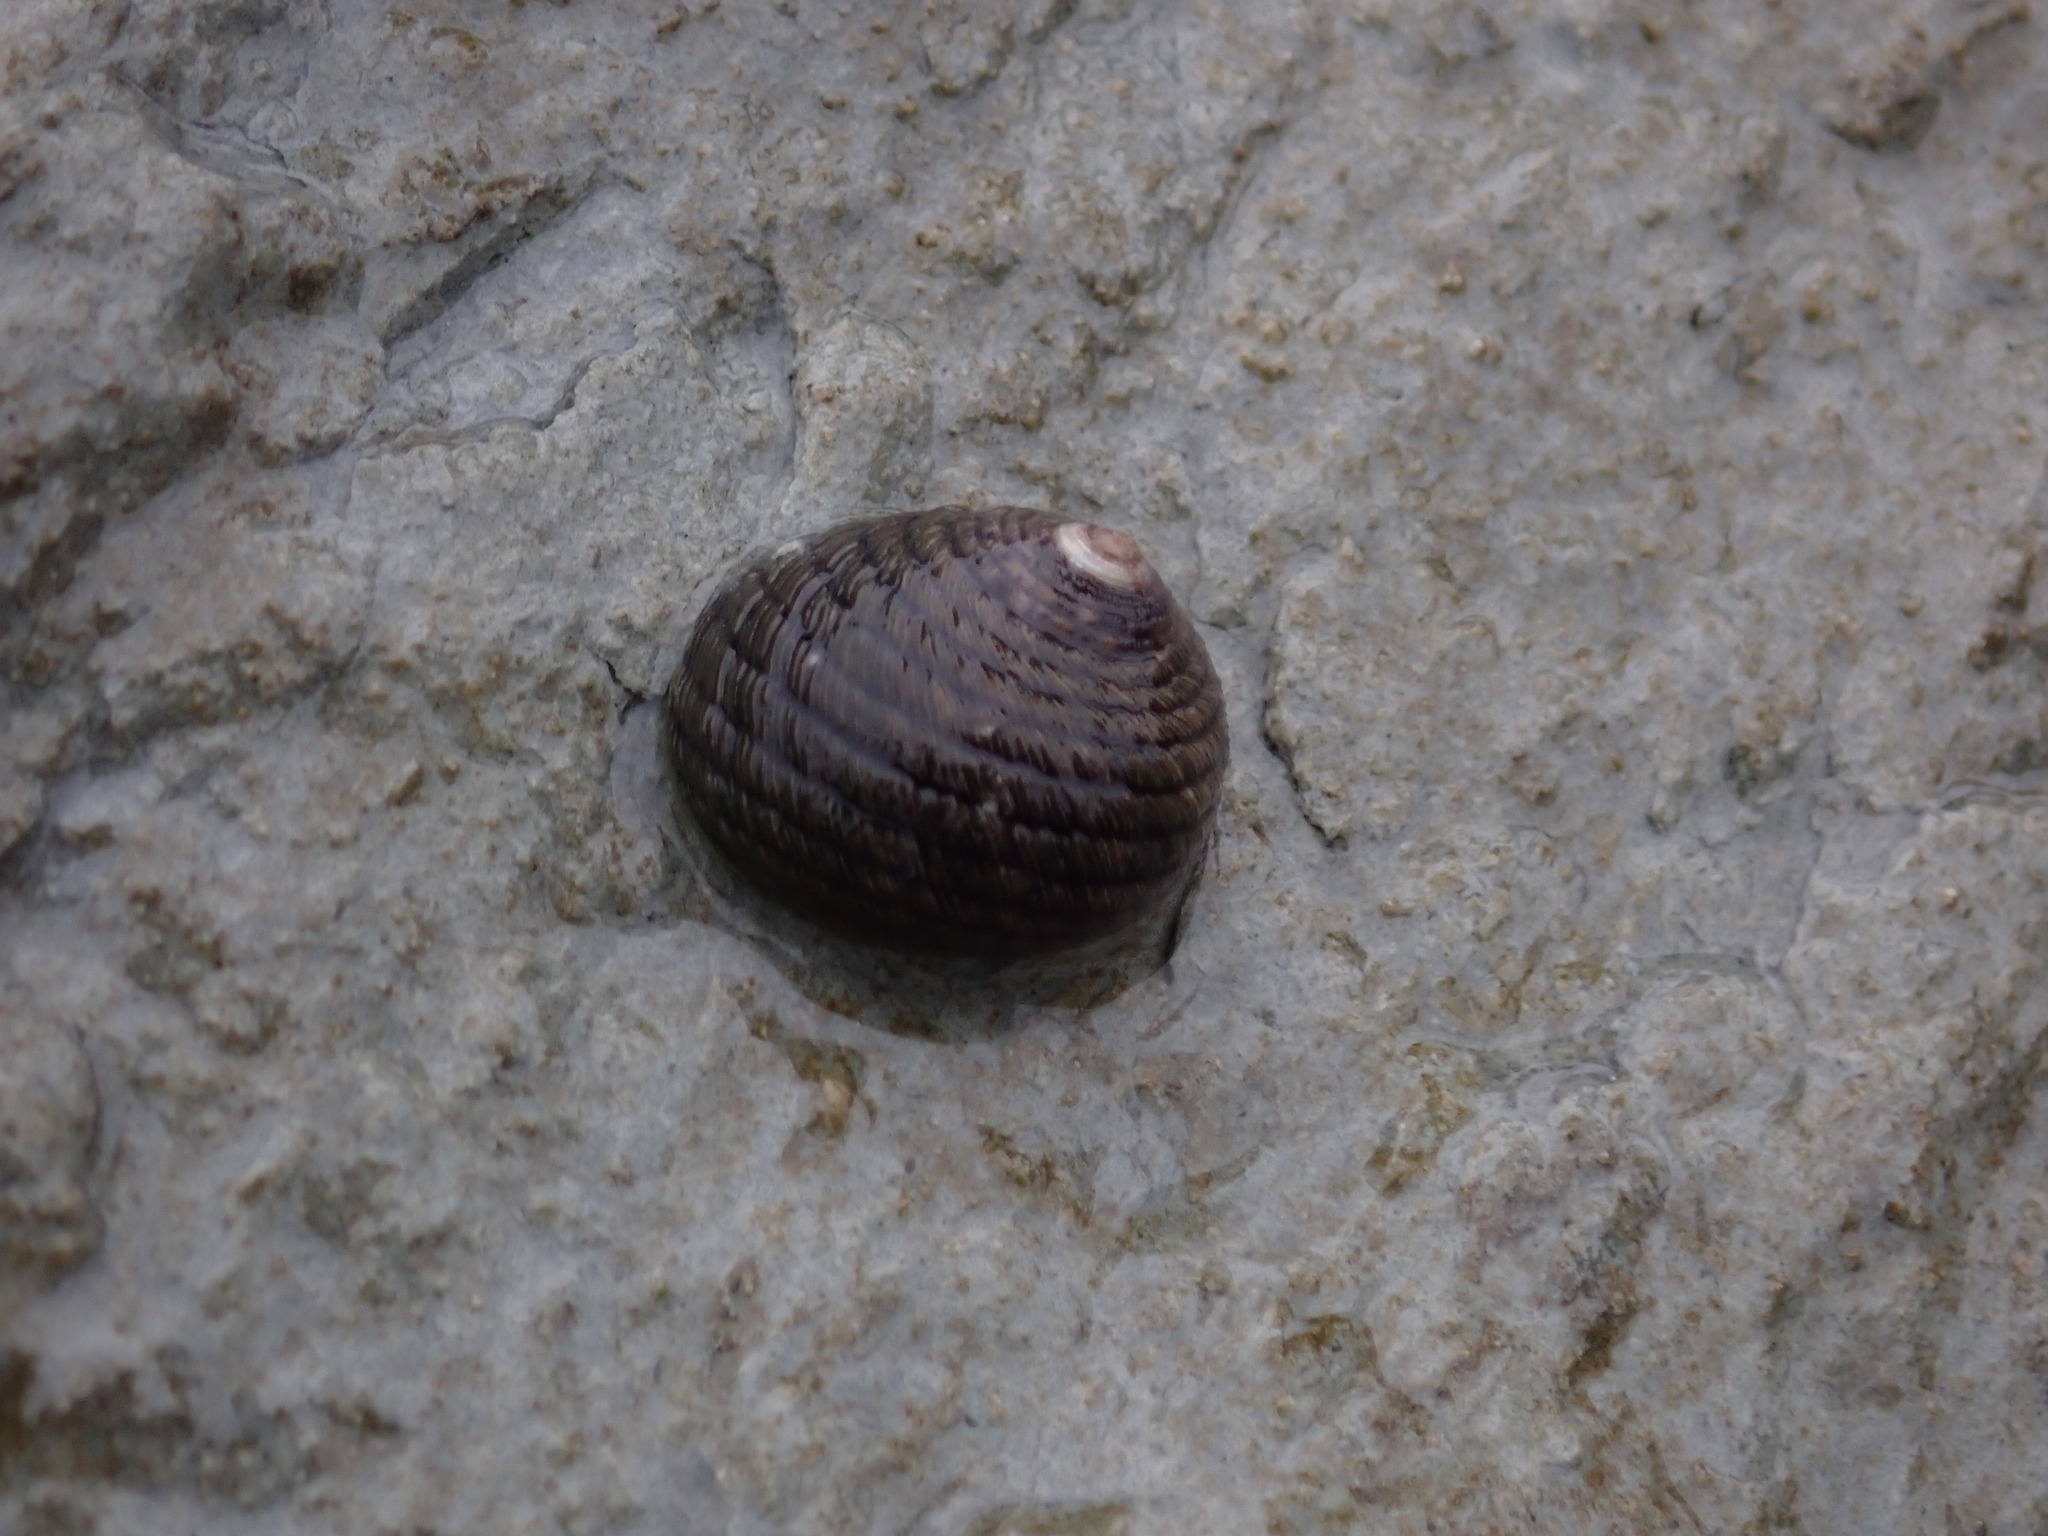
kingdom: Animalia
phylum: Mollusca
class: Gastropoda
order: Trochida
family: Trochidae
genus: Diloma
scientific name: Diloma aethiops
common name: Scorched monodont
